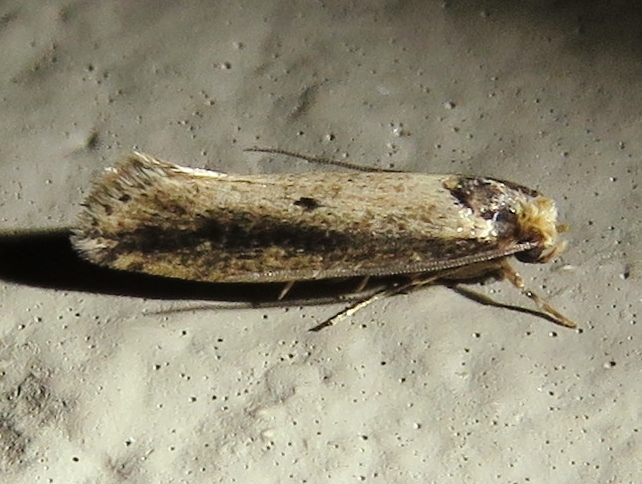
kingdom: Animalia
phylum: Arthropoda
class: Insecta
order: Lepidoptera
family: Tineidae
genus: Tinea
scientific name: Tinea apicimaculella
